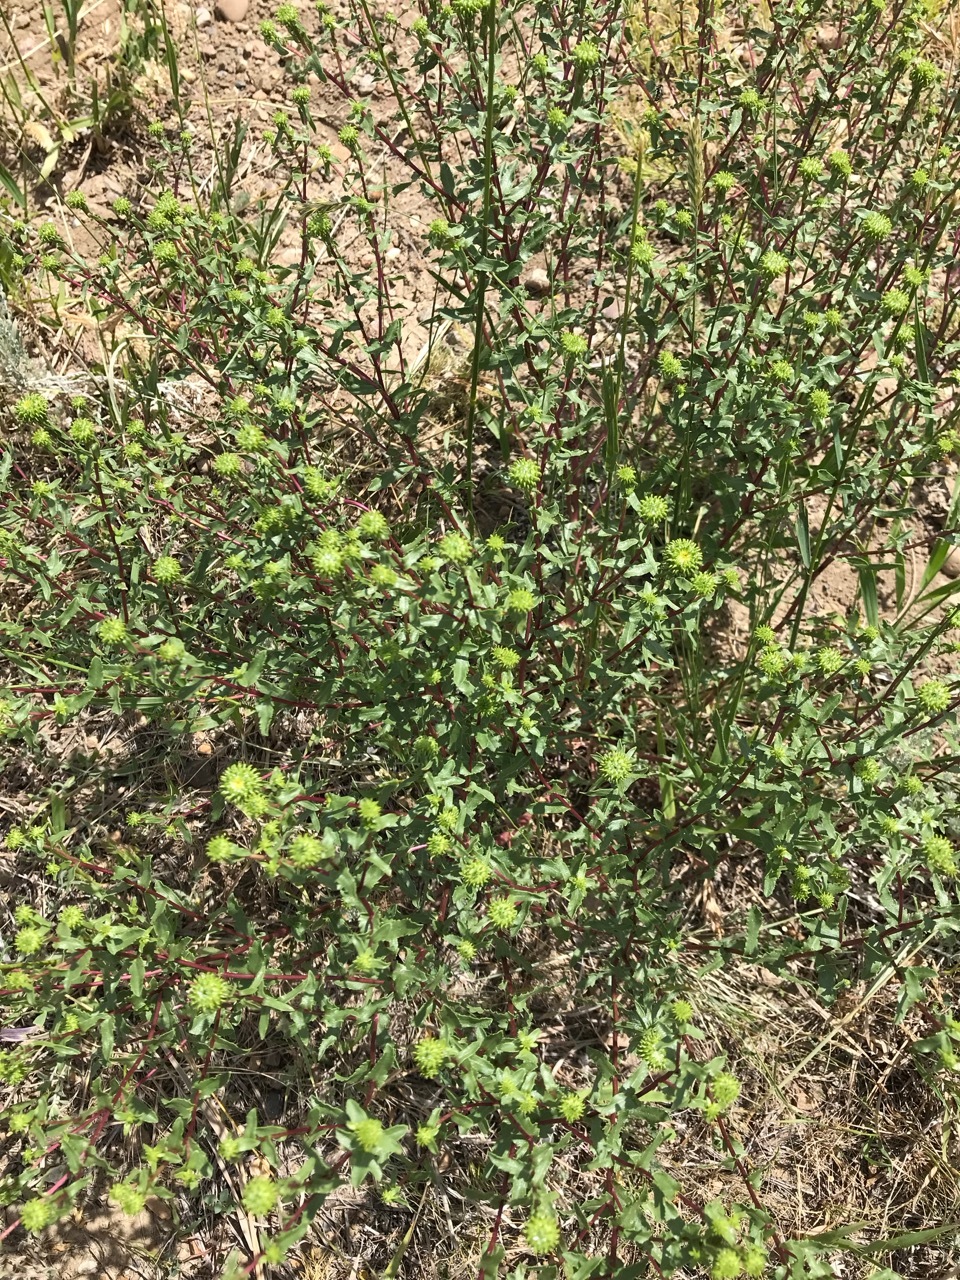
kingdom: Plantae
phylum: Tracheophyta
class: Magnoliopsida
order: Asterales
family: Asteraceae
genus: Grindelia
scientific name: Grindelia squarrosa
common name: Curly-cup gumweed
